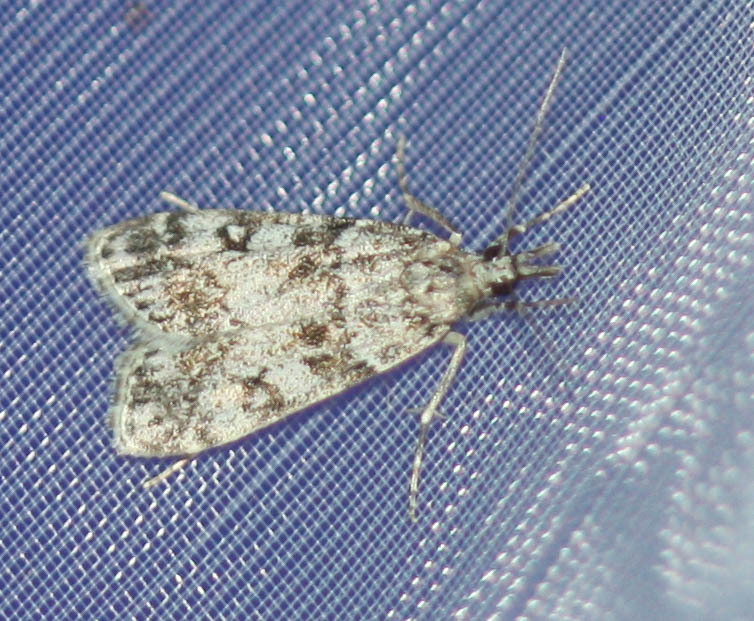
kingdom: Animalia
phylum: Arthropoda
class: Insecta
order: Lepidoptera
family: Crambidae
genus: Eudonia
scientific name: Eudonia lacustrata
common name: Little grey
